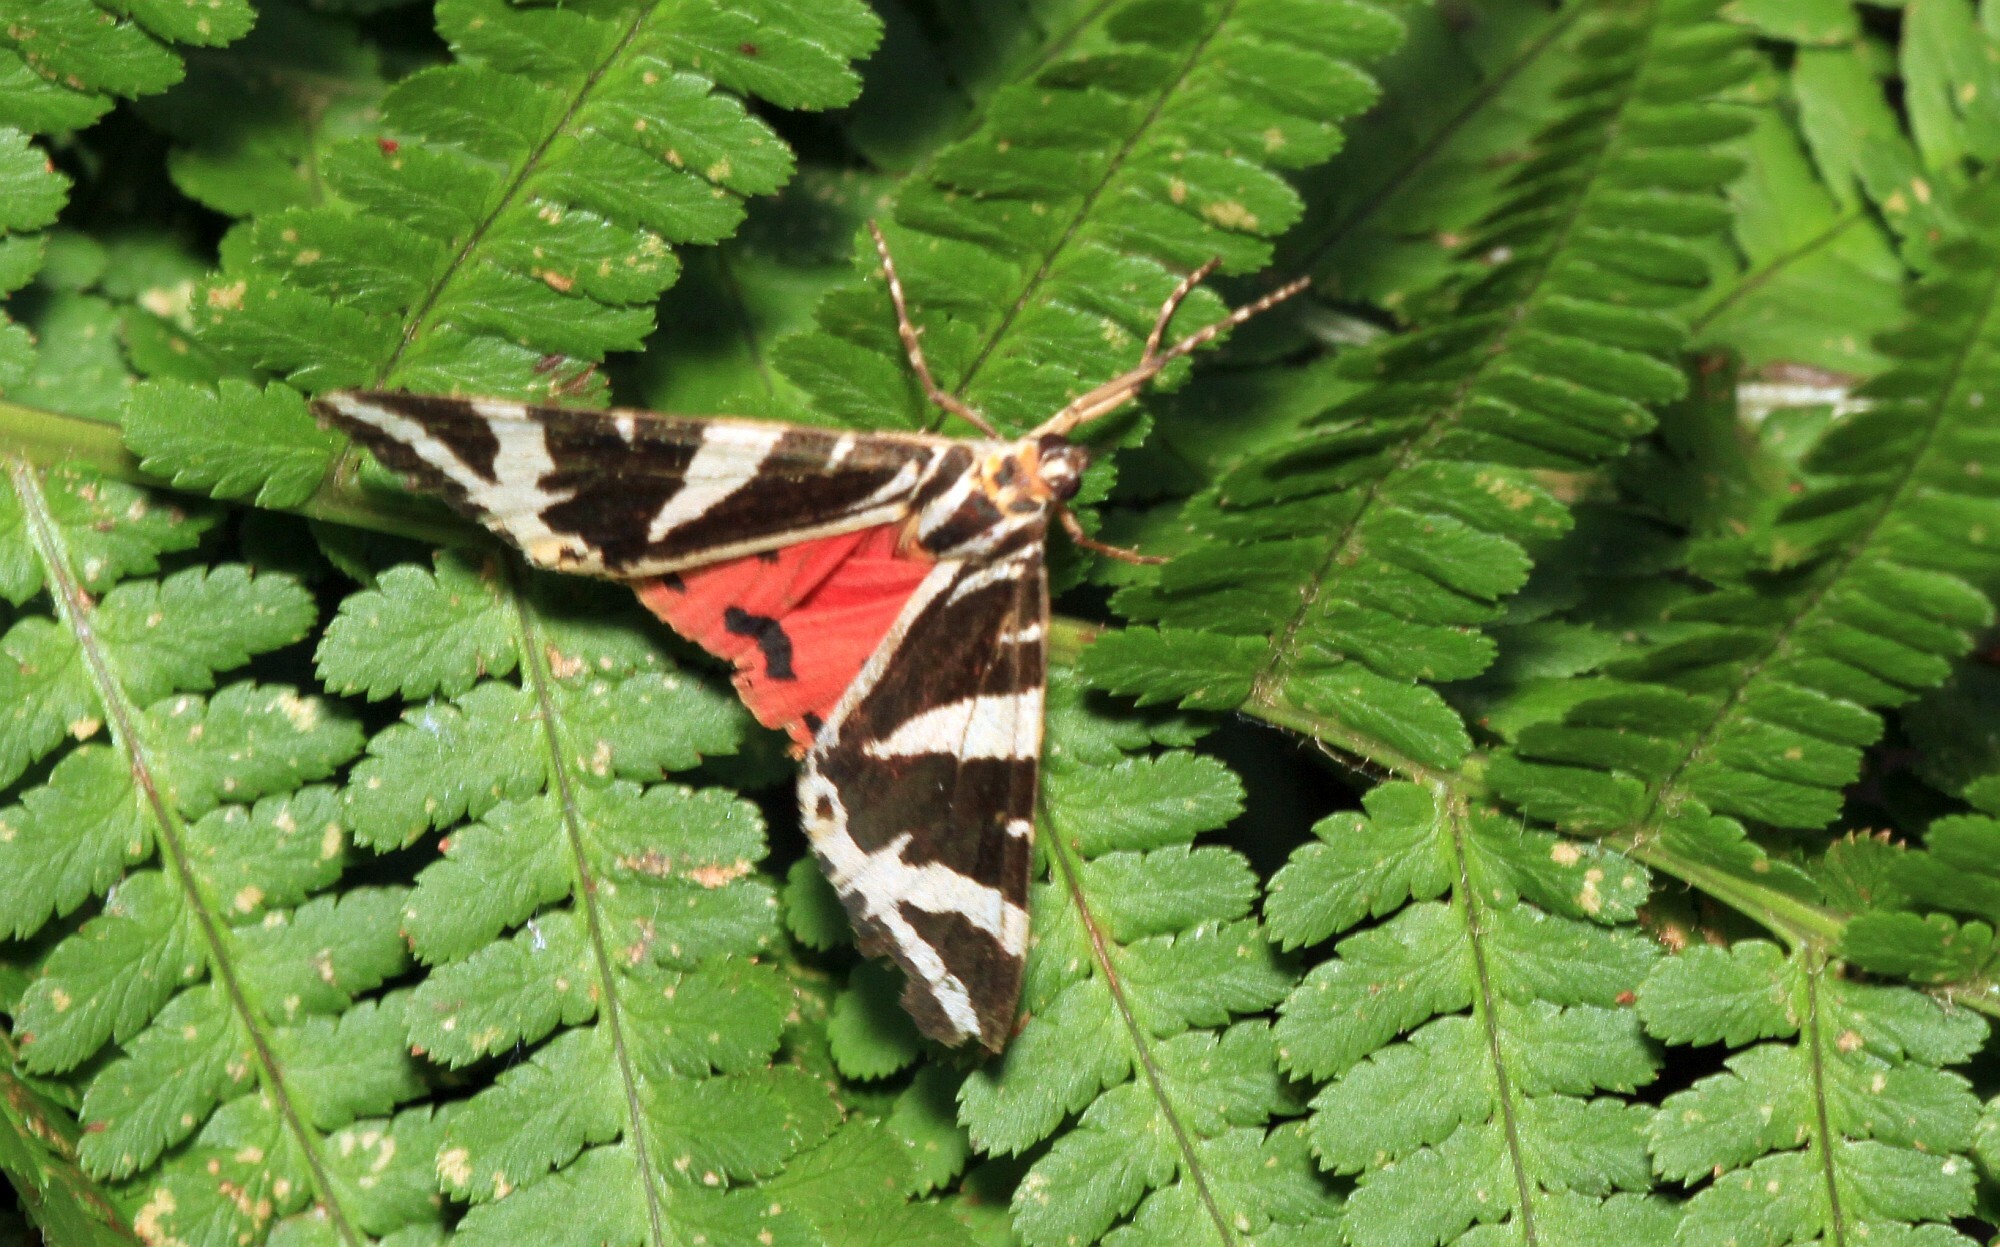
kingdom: Animalia
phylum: Arthropoda
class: Insecta
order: Lepidoptera
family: Erebidae
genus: Euplagia
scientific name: Euplagia quadripunctaria
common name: Jersey tiger
